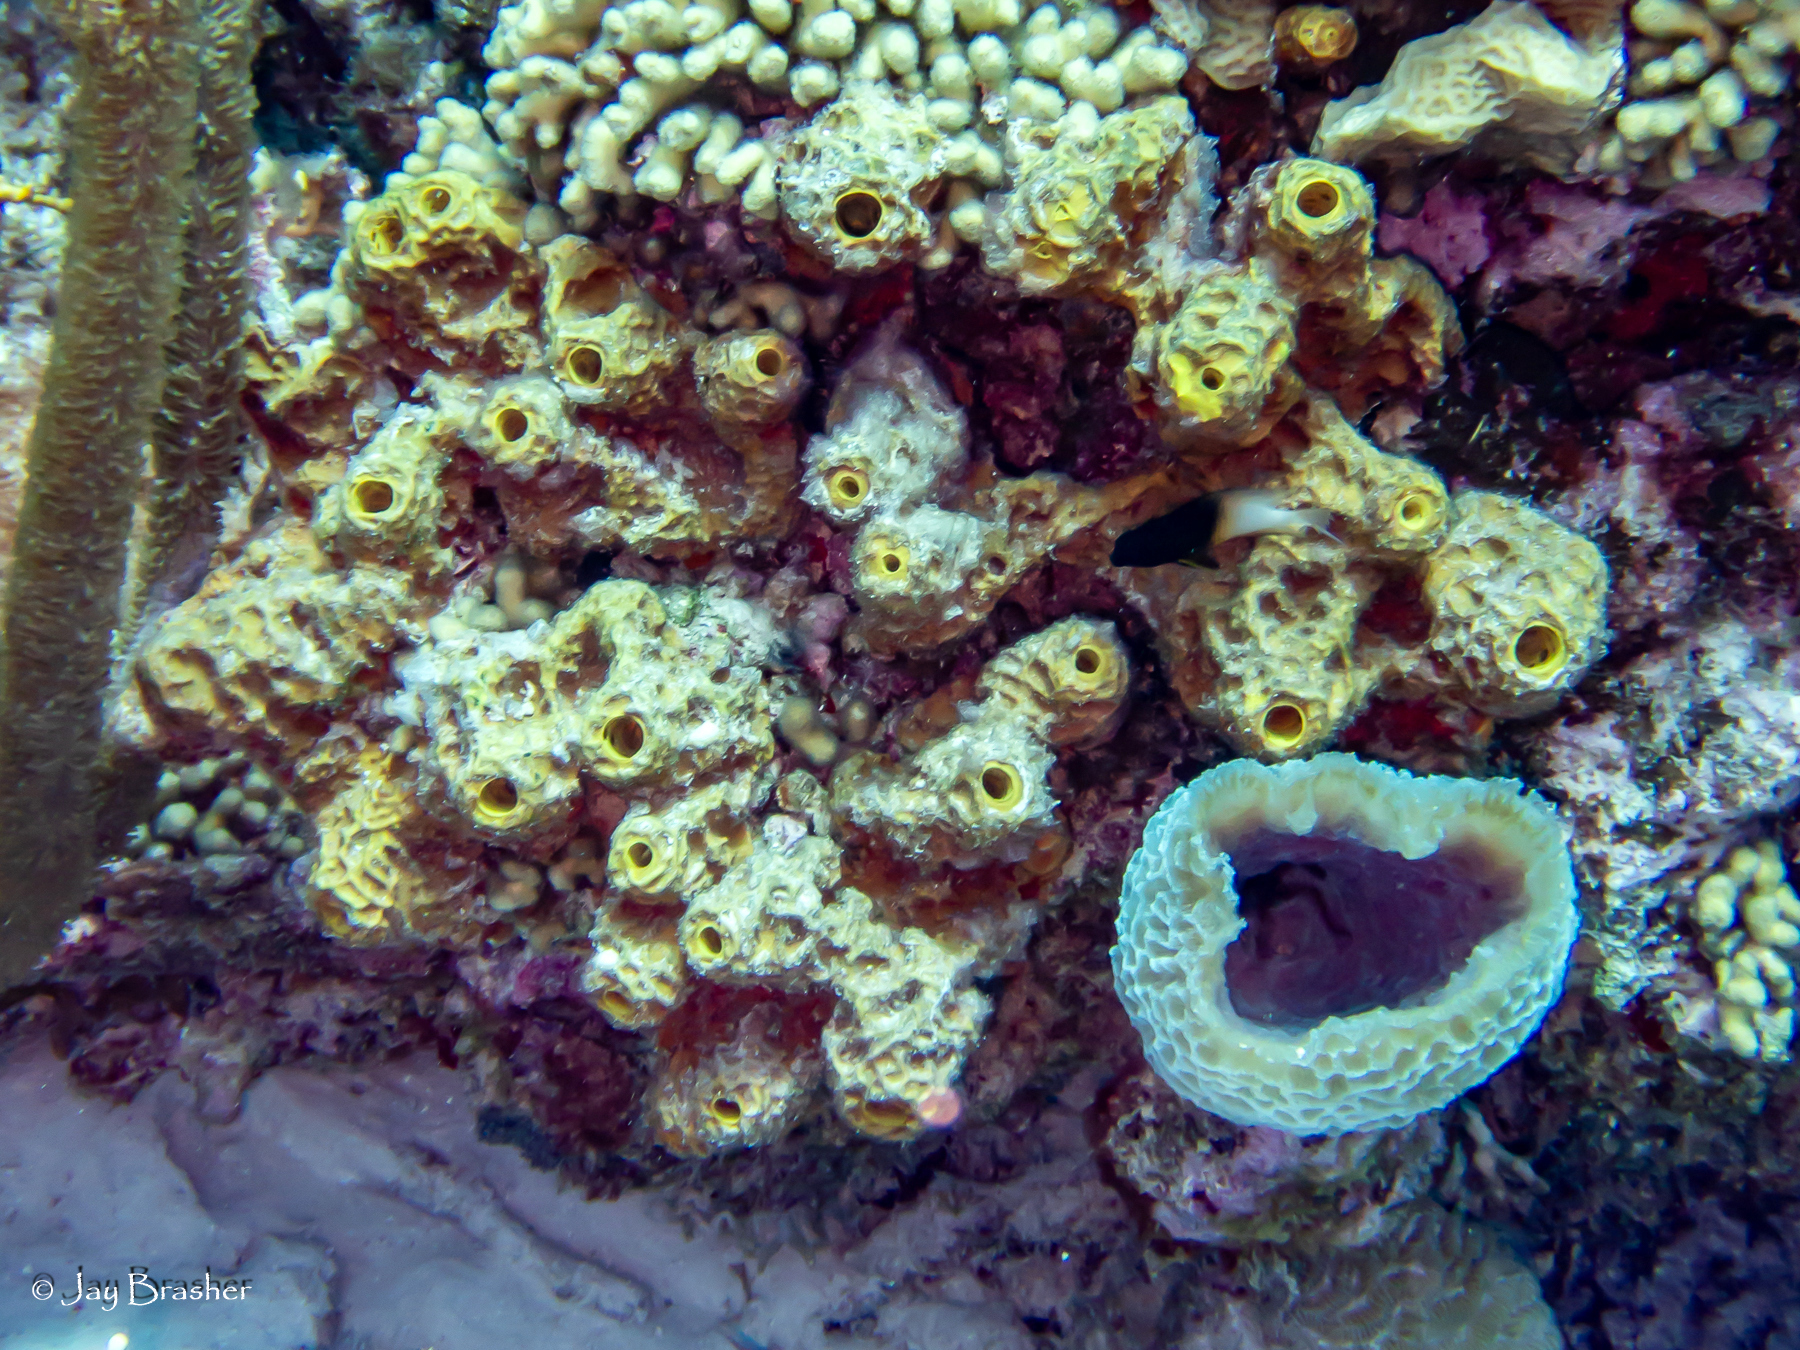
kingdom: Animalia
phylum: Porifera
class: Demospongiae
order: Haplosclerida
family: Callyspongiidae
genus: Callyspongia
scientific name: Callyspongia plicifera
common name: Azure vase sponge
